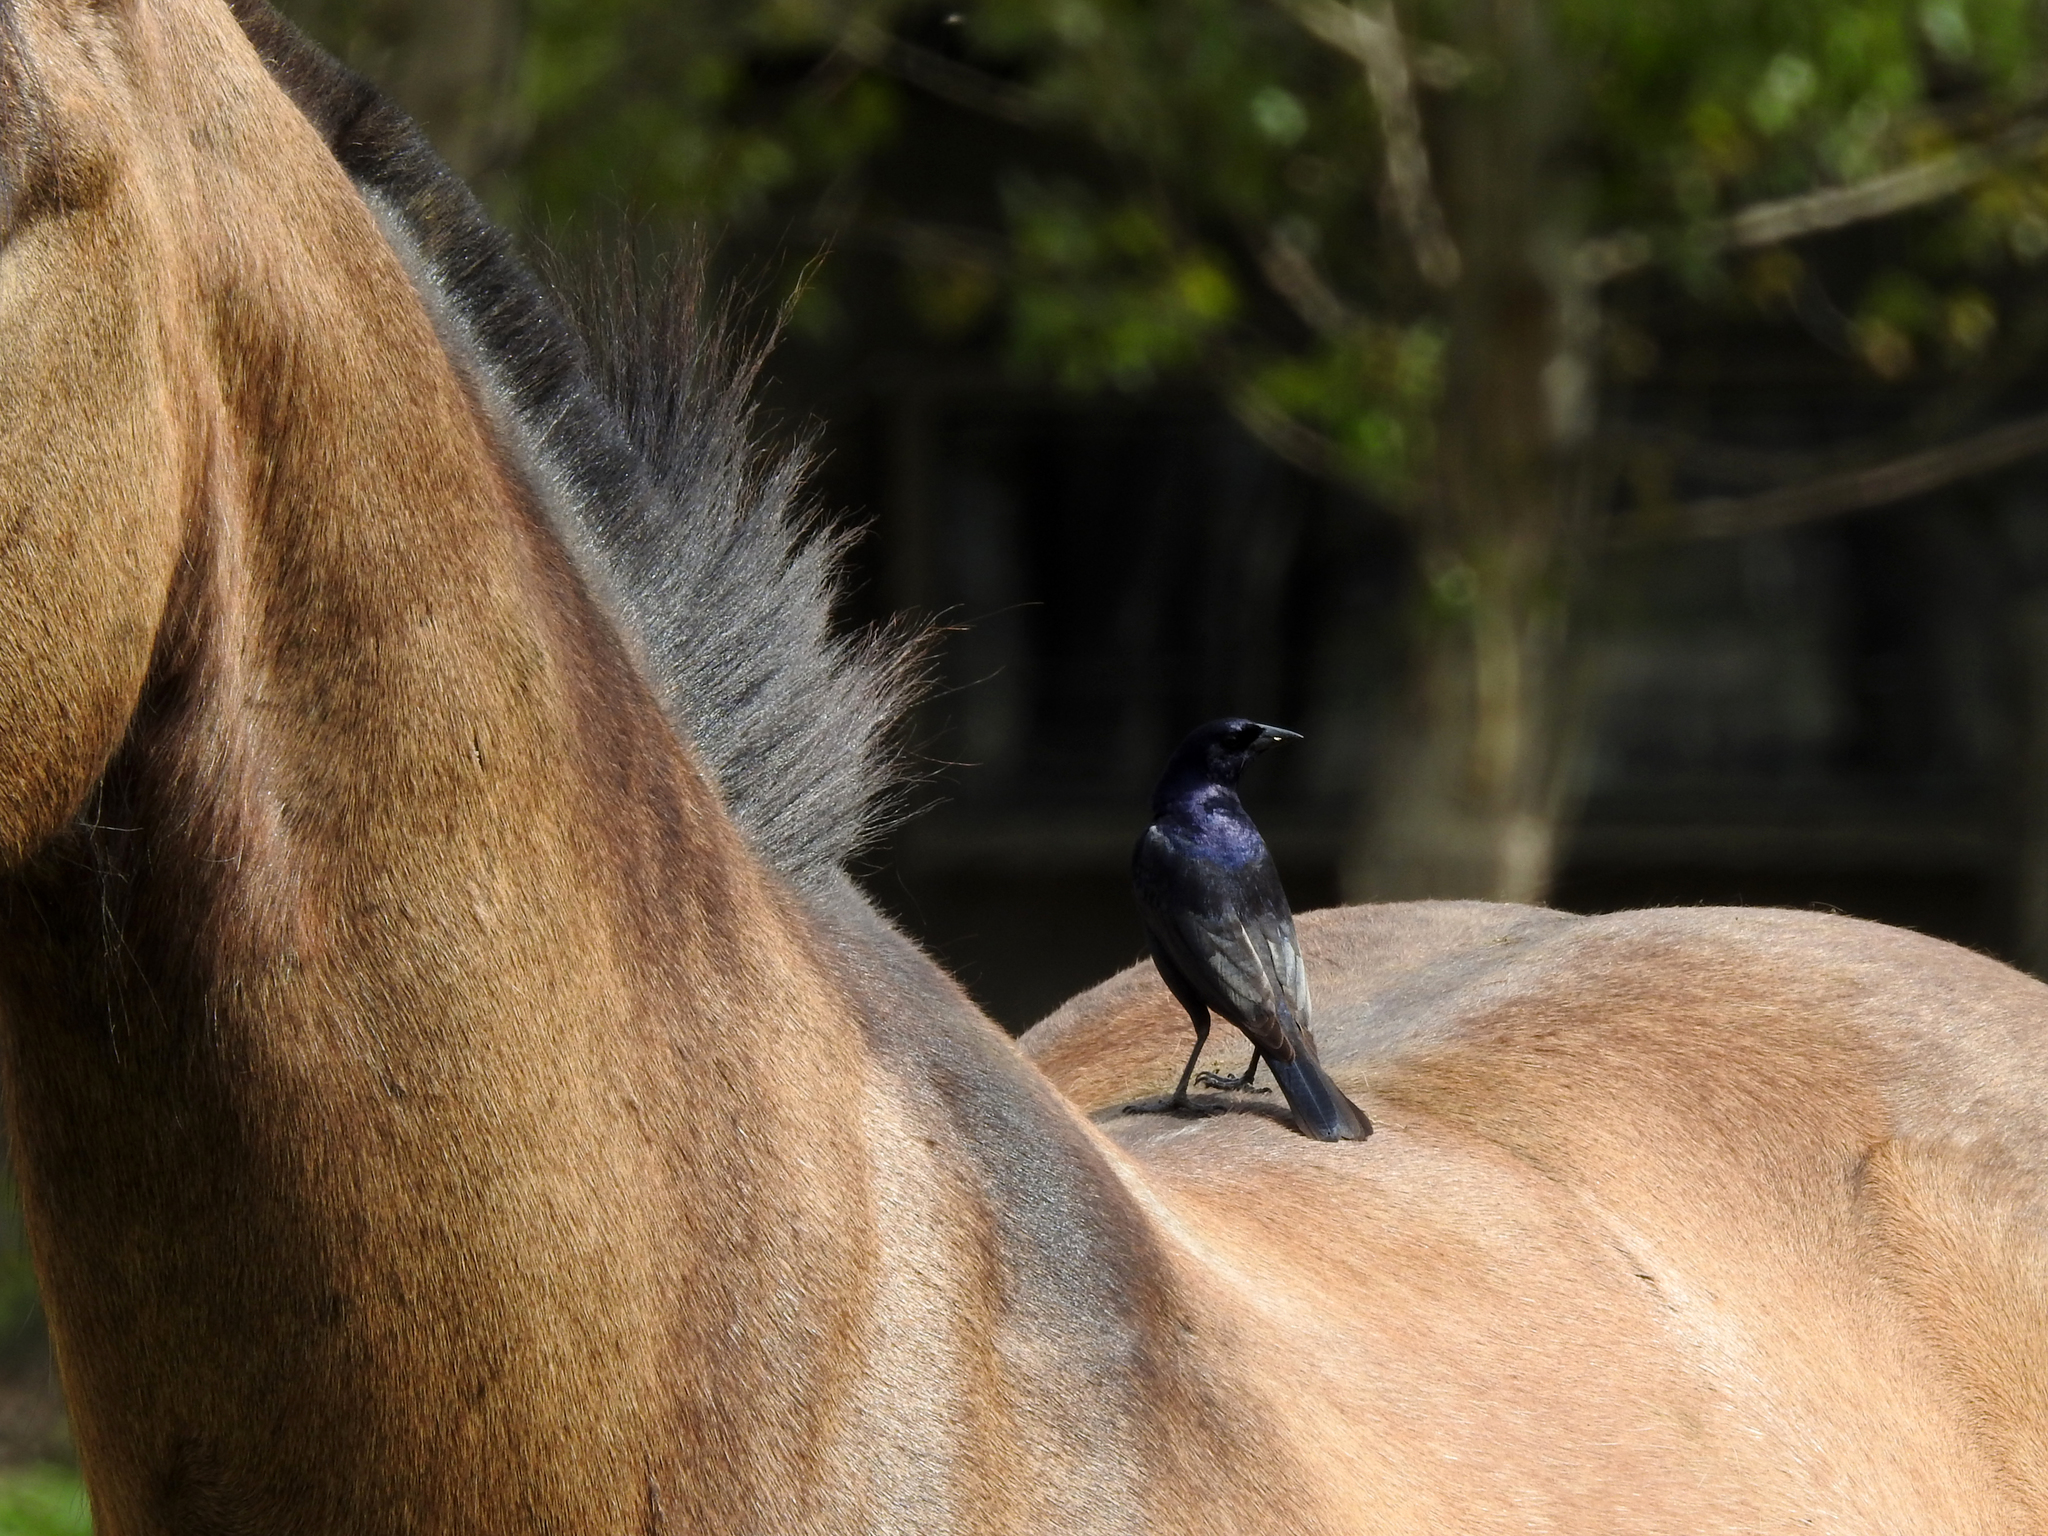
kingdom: Animalia
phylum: Chordata
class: Aves
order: Passeriformes
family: Icteridae
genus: Molothrus
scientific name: Molothrus bonariensis
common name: Shiny cowbird
